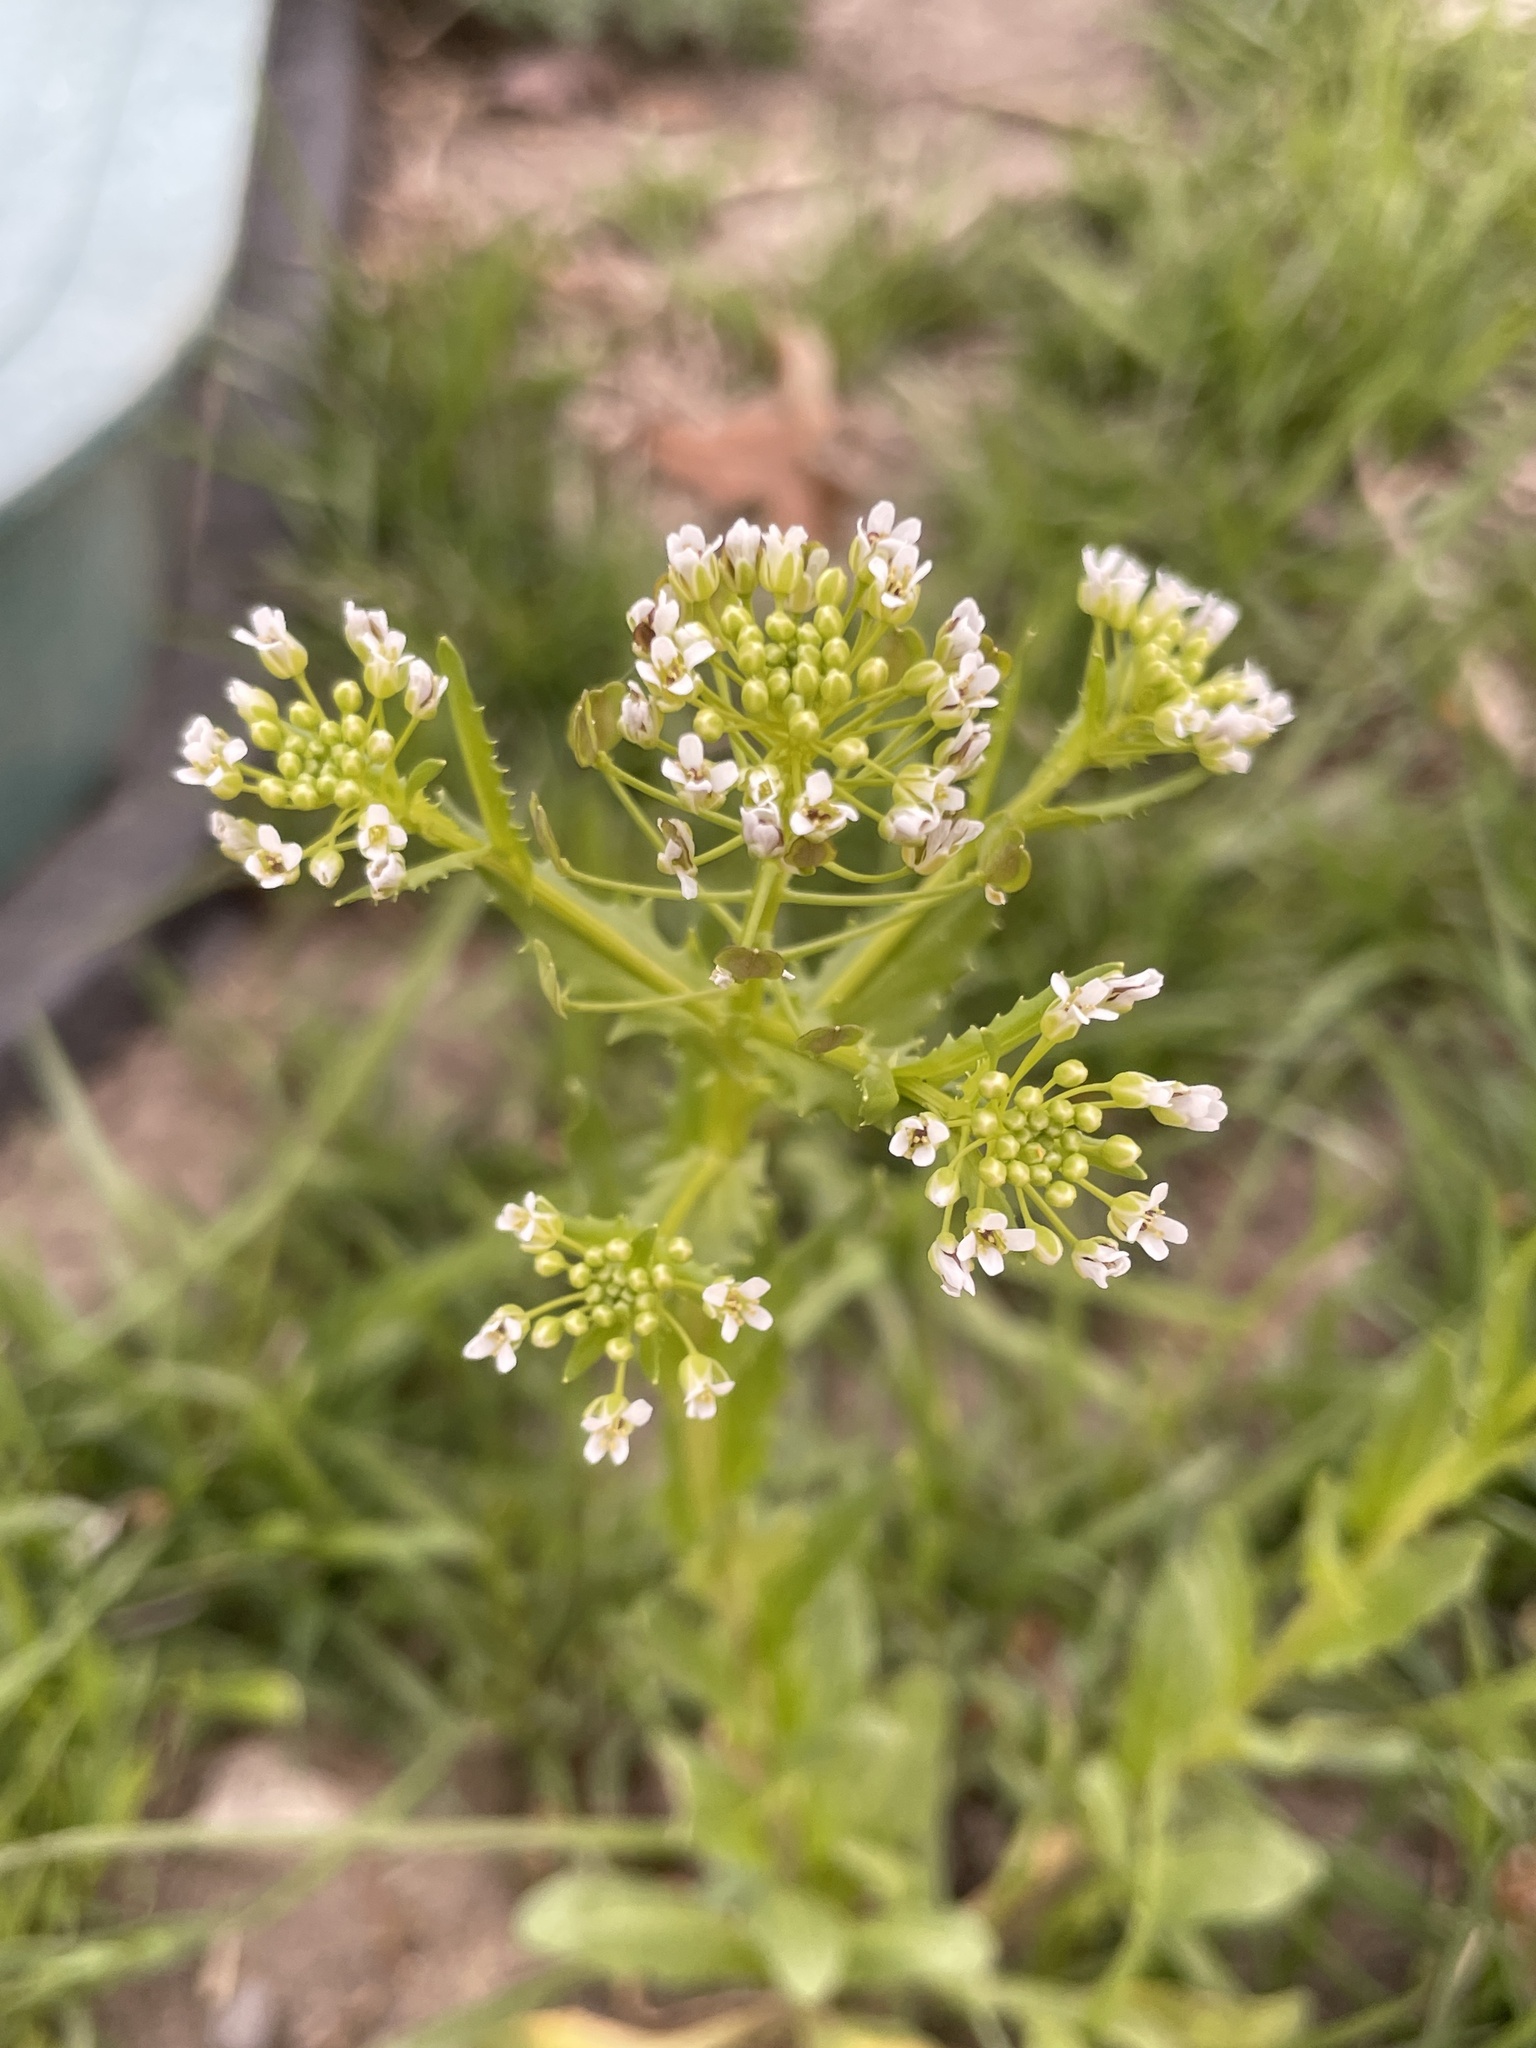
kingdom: Plantae
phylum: Tracheophyta
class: Magnoliopsida
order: Brassicales
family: Brassicaceae
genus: Thlaspi
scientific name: Thlaspi arvense
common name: Field pennycress
